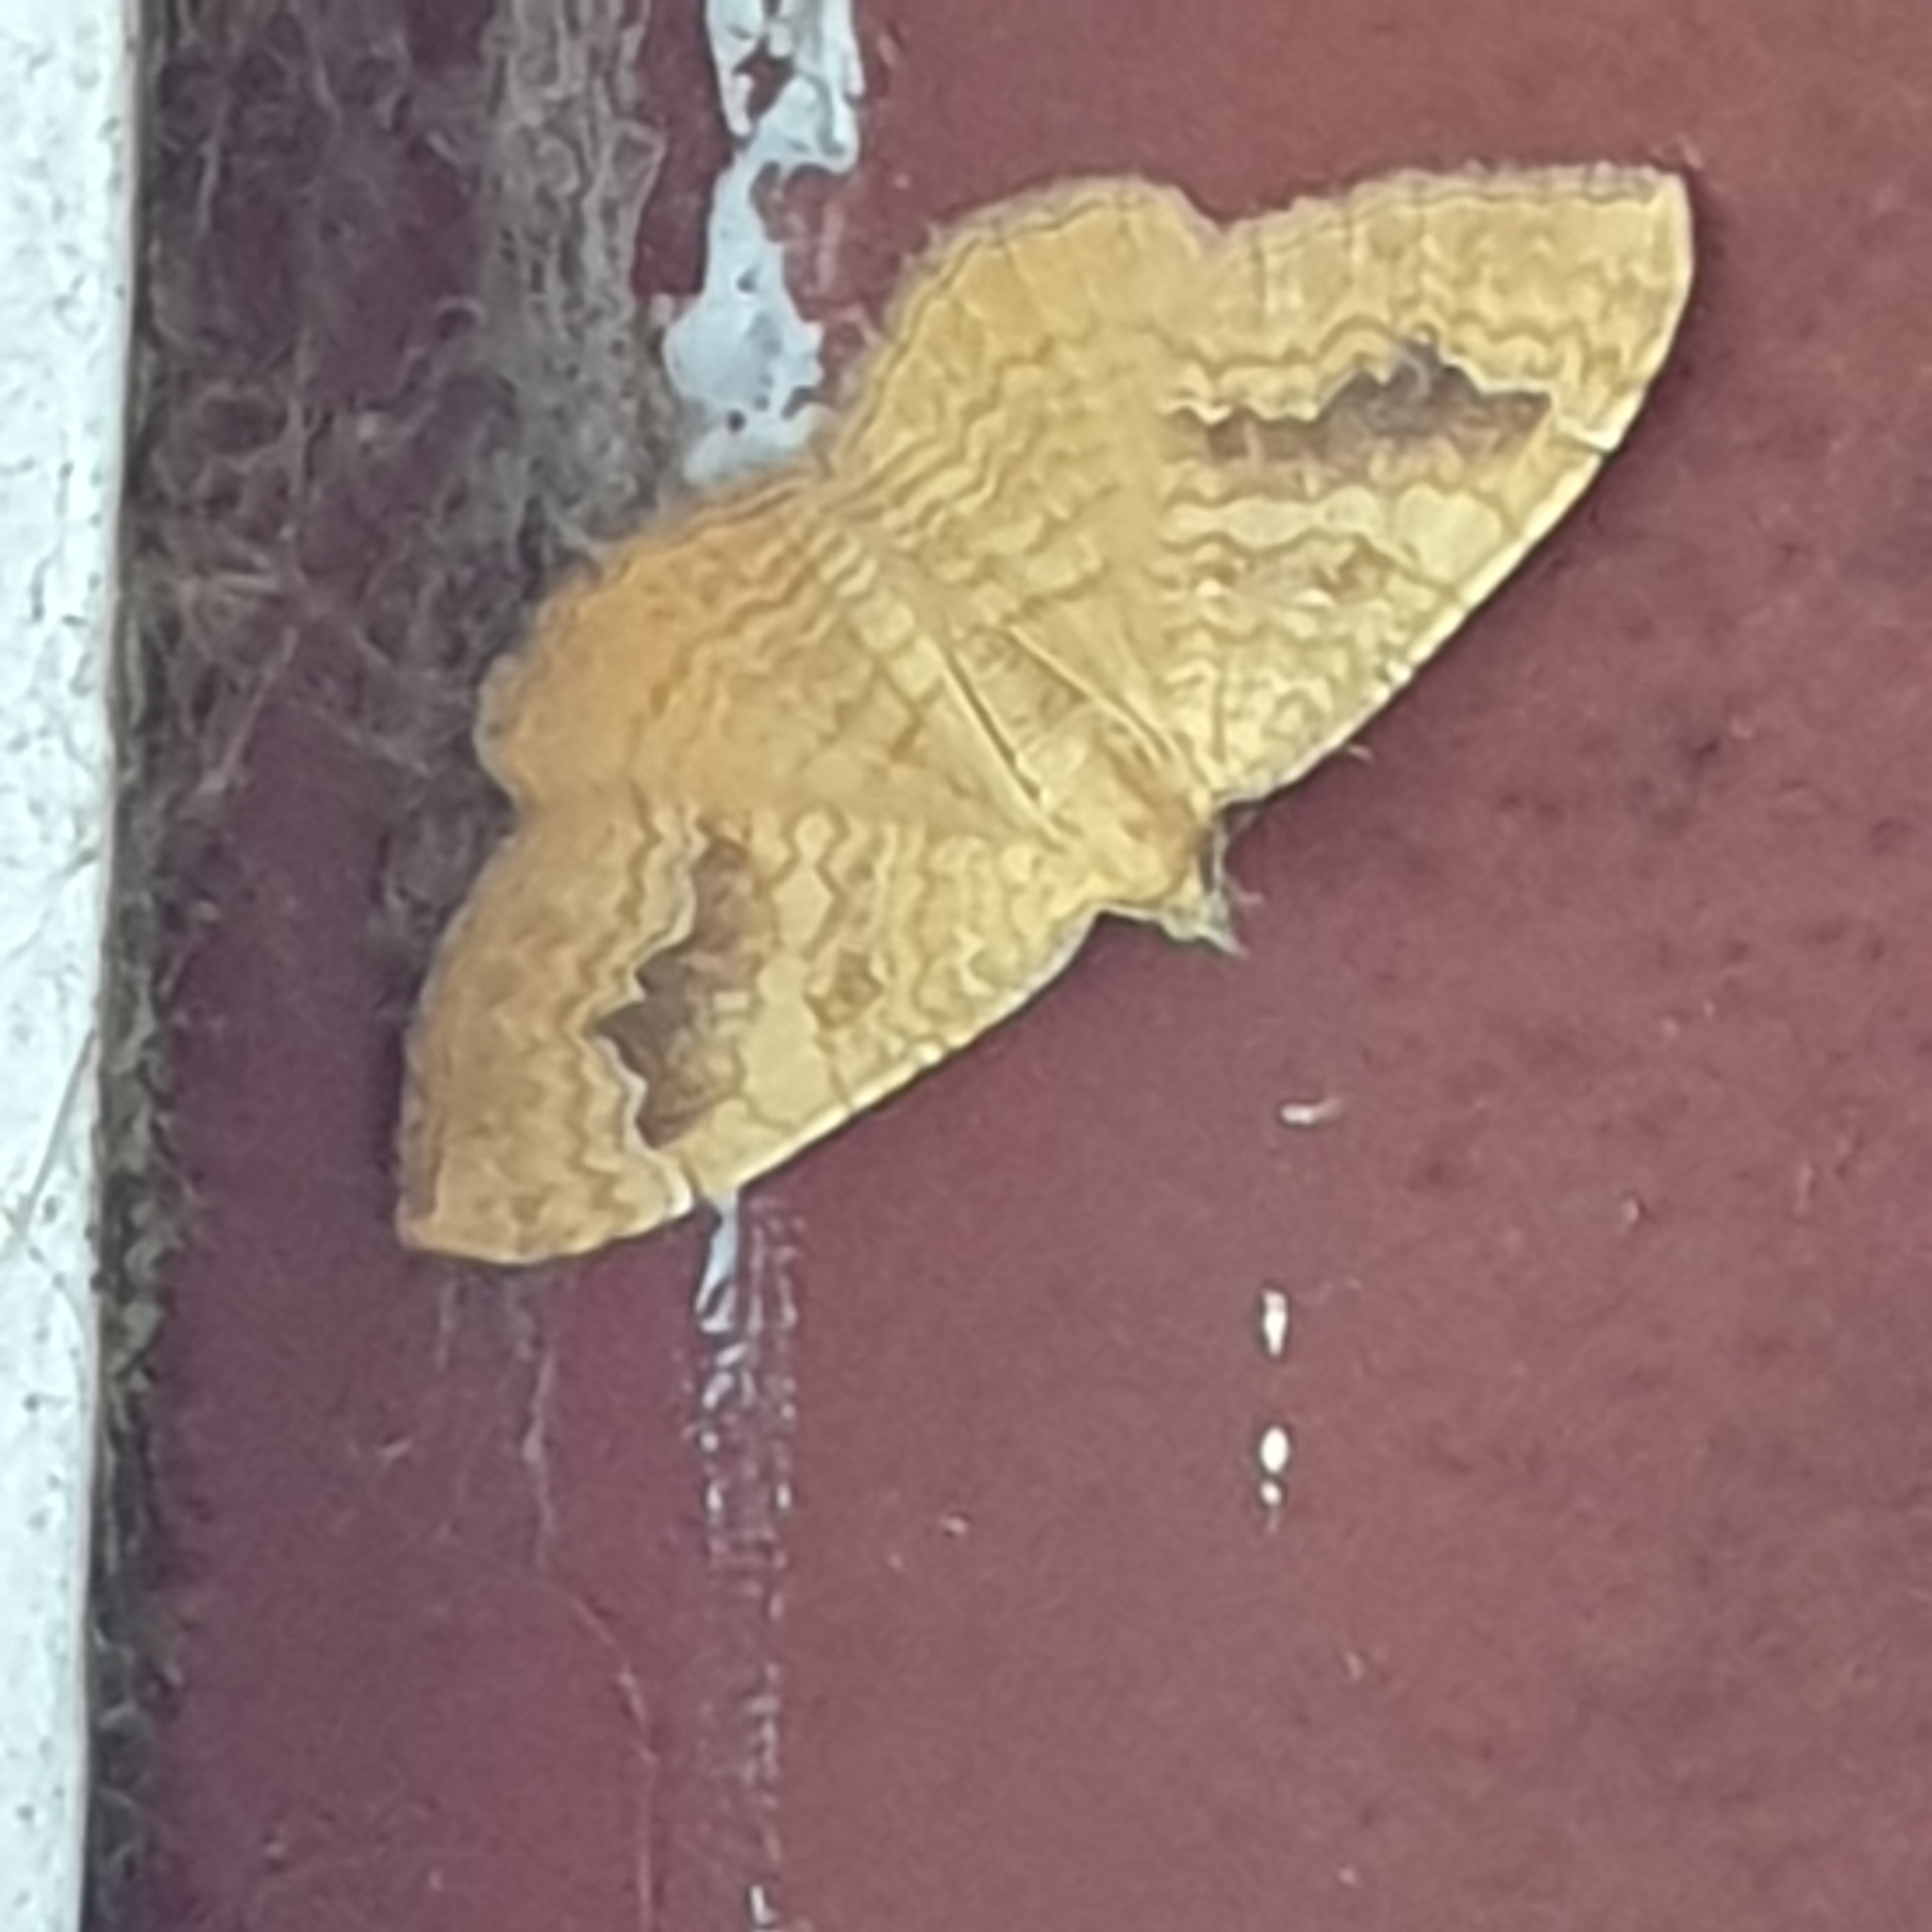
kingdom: Animalia
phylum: Arthropoda
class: Insecta
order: Lepidoptera
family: Geometridae
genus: Camptogramma
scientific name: Camptogramma bilineata
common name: Yellow shell
